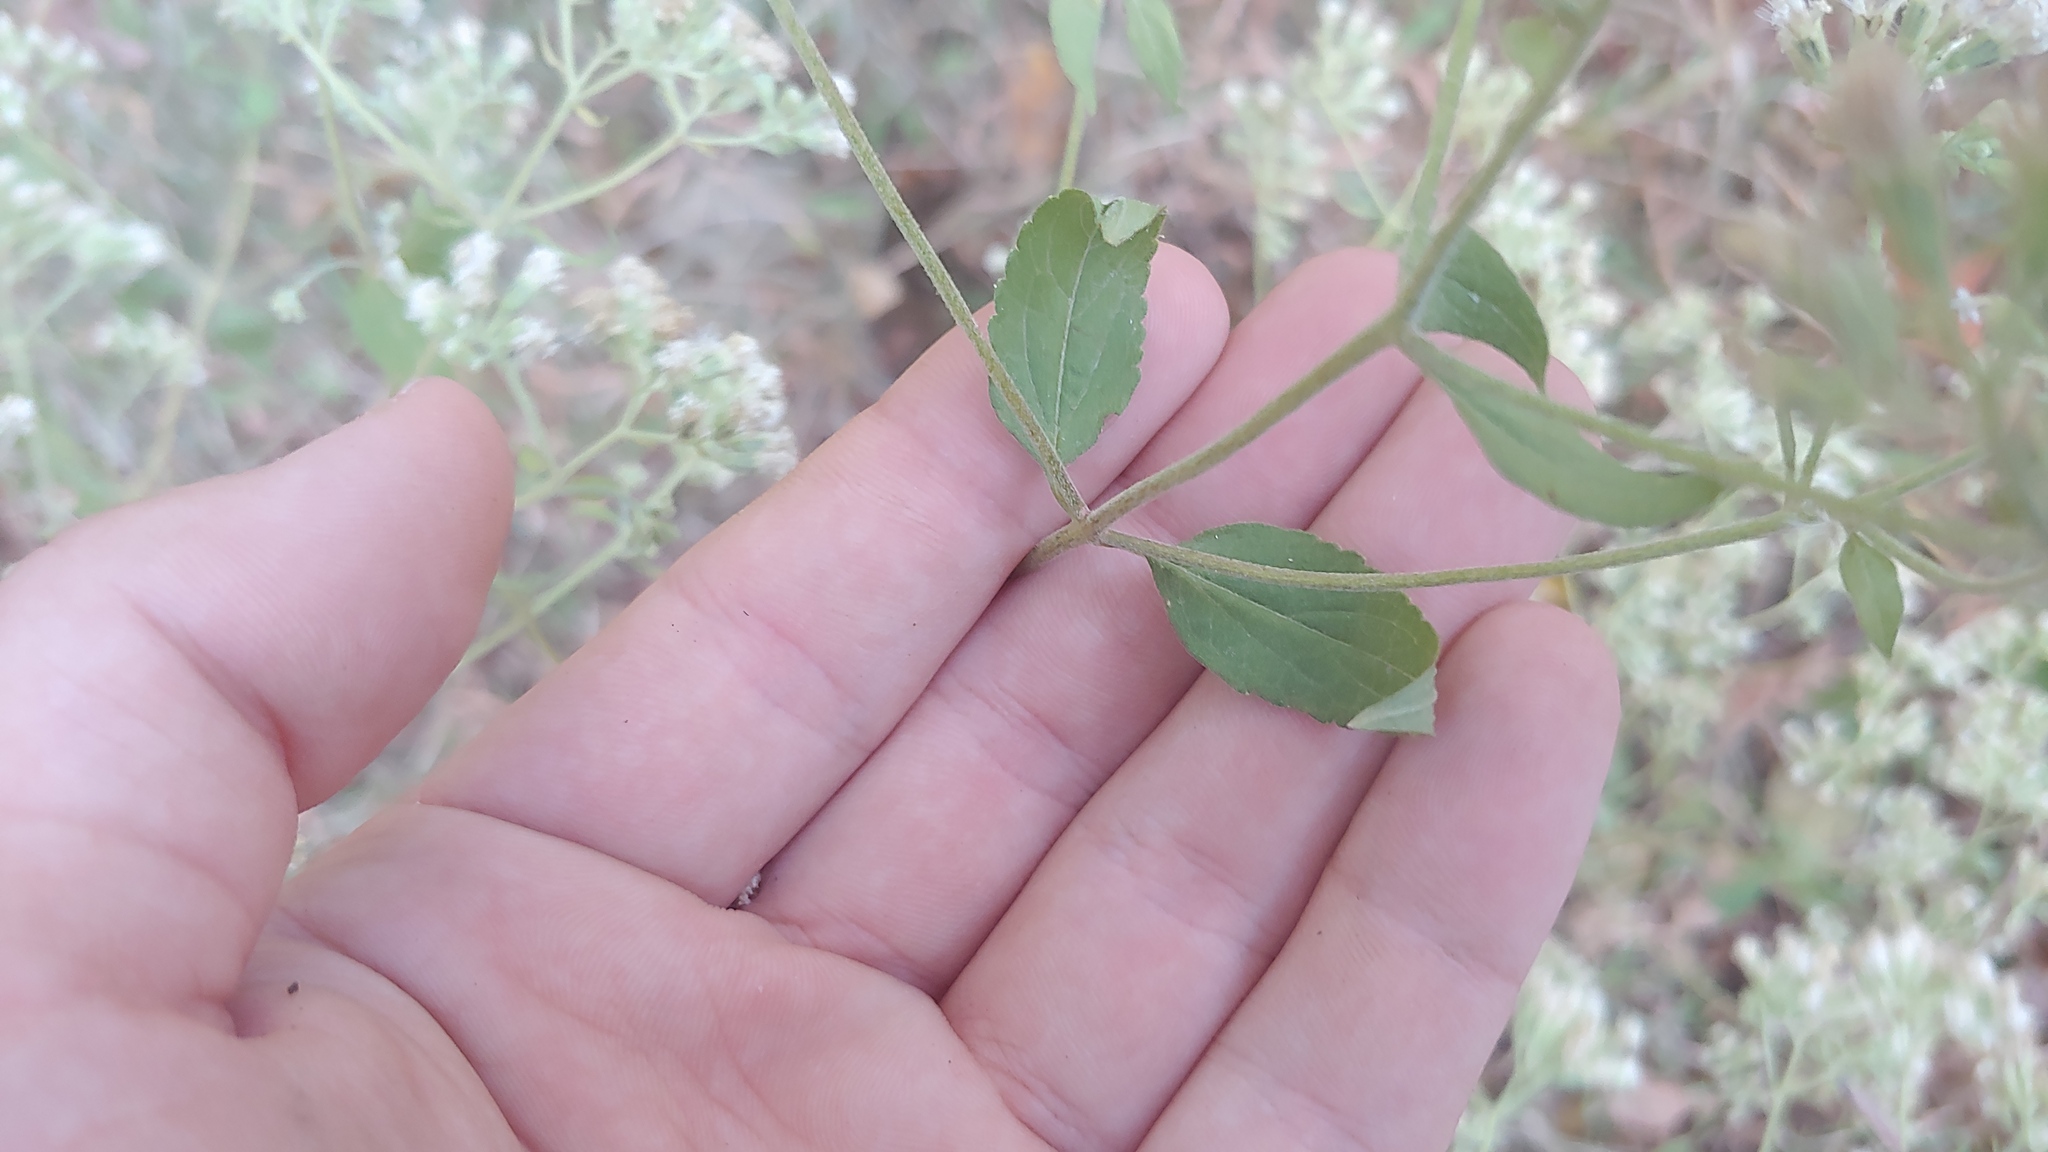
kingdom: Plantae
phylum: Tracheophyta
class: Magnoliopsida
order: Asterales
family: Asteraceae
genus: Ageratina
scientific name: Ageratina altissima
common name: White snakeroot
